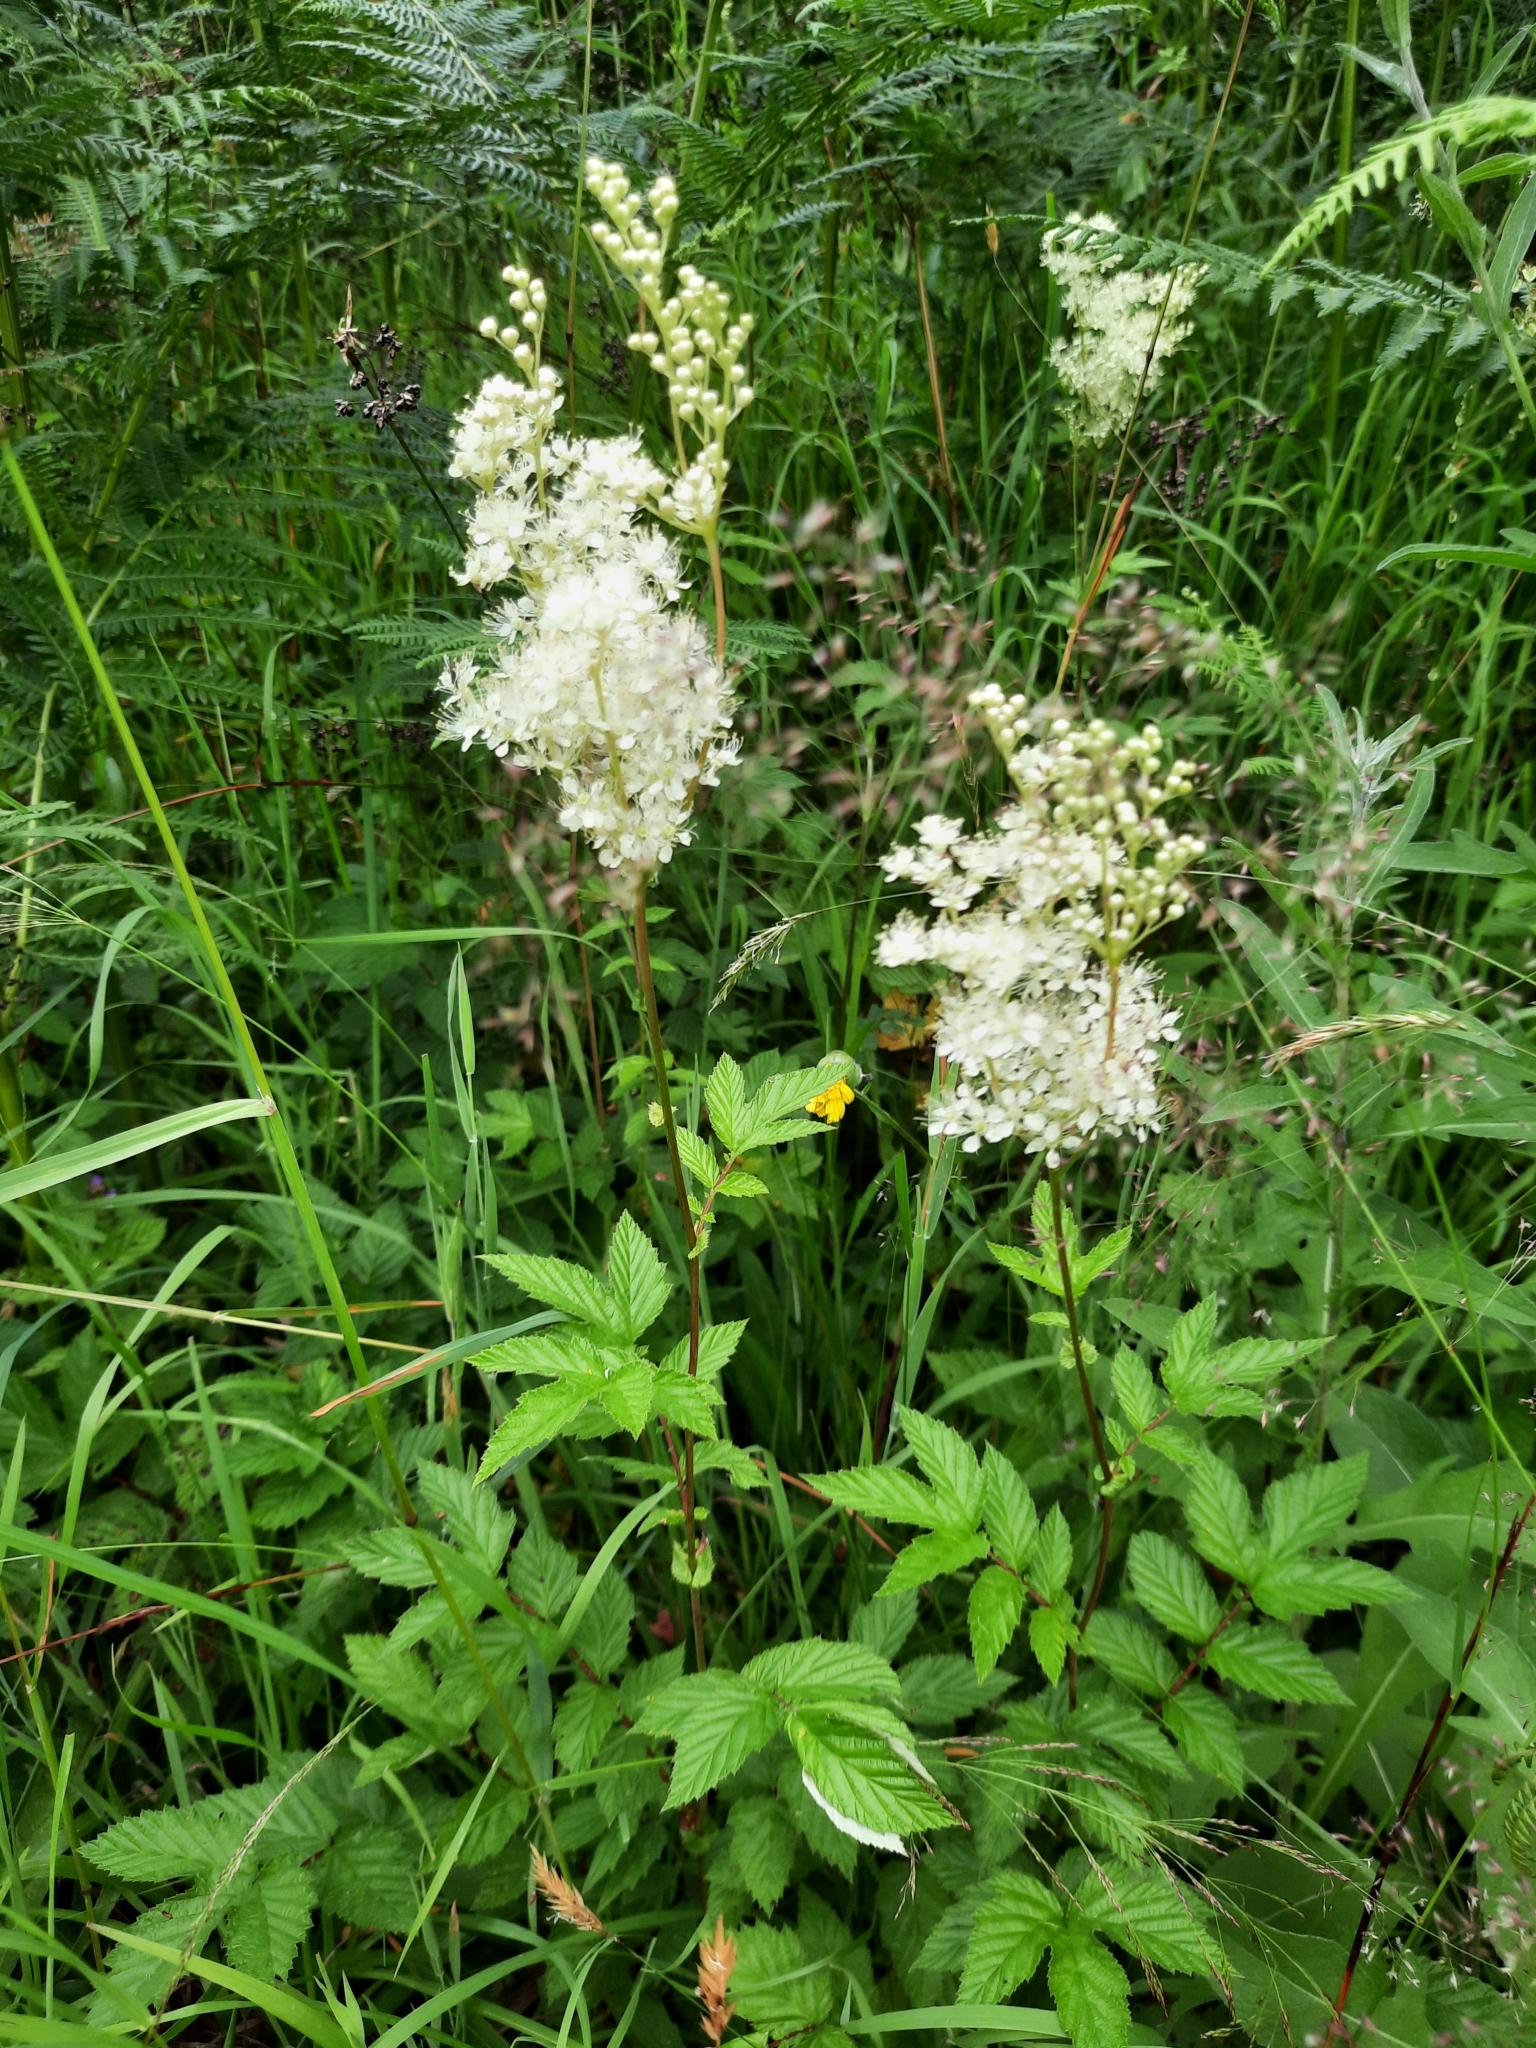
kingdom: Plantae
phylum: Tracheophyta
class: Magnoliopsida
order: Rosales
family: Rosaceae
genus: Filipendula
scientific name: Filipendula ulmaria
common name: Meadowsweet
